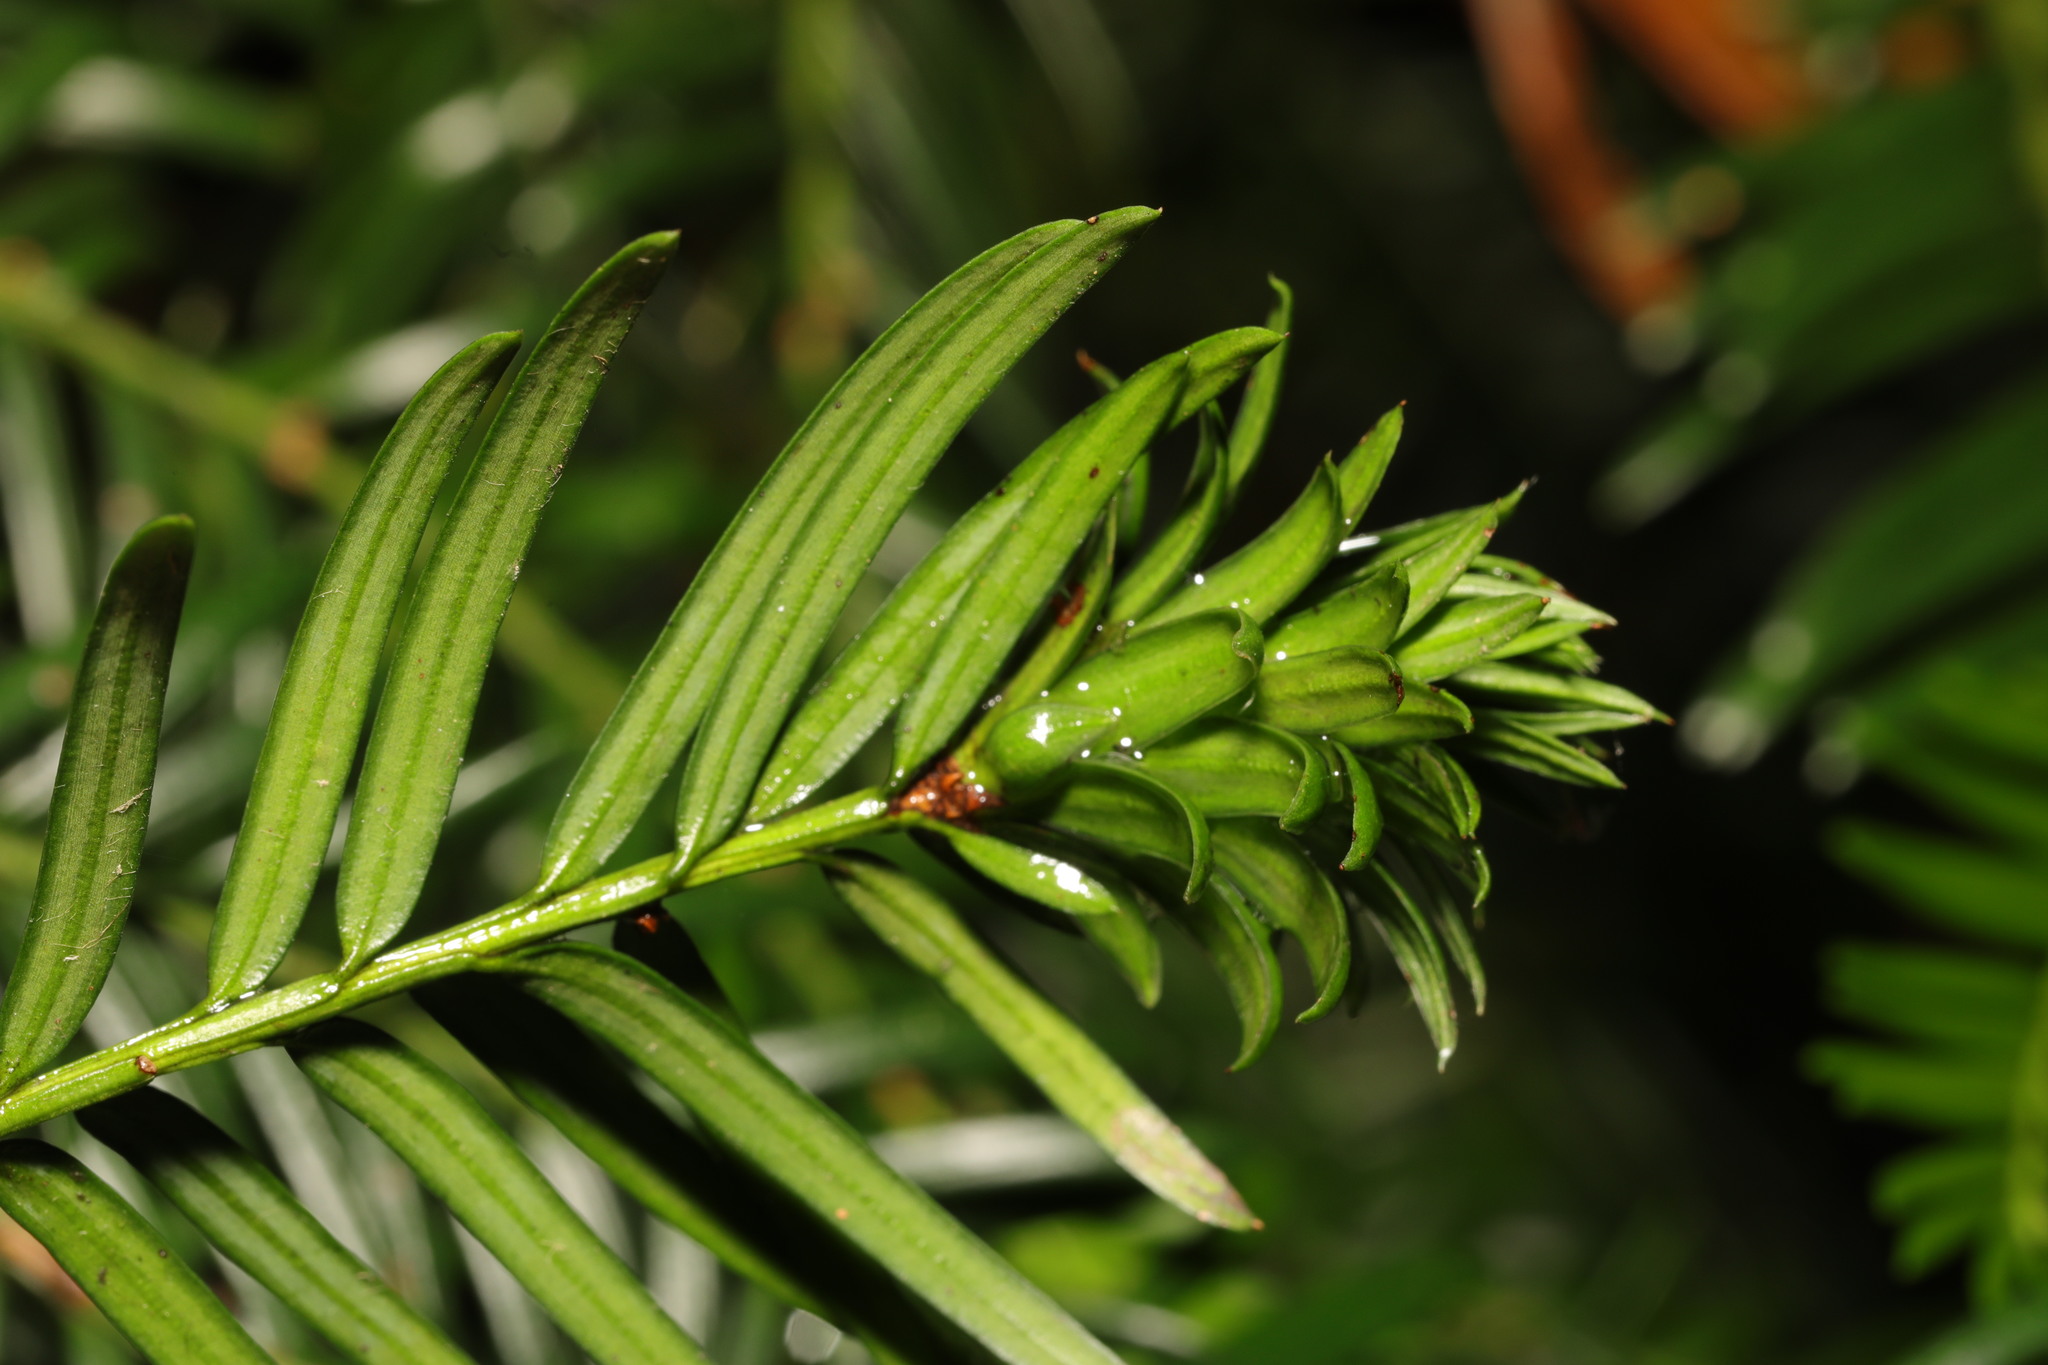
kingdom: Animalia
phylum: Arthropoda
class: Insecta
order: Diptera
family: Cecidomyiidae
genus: Taxomyia
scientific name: Taxomyia taxi
